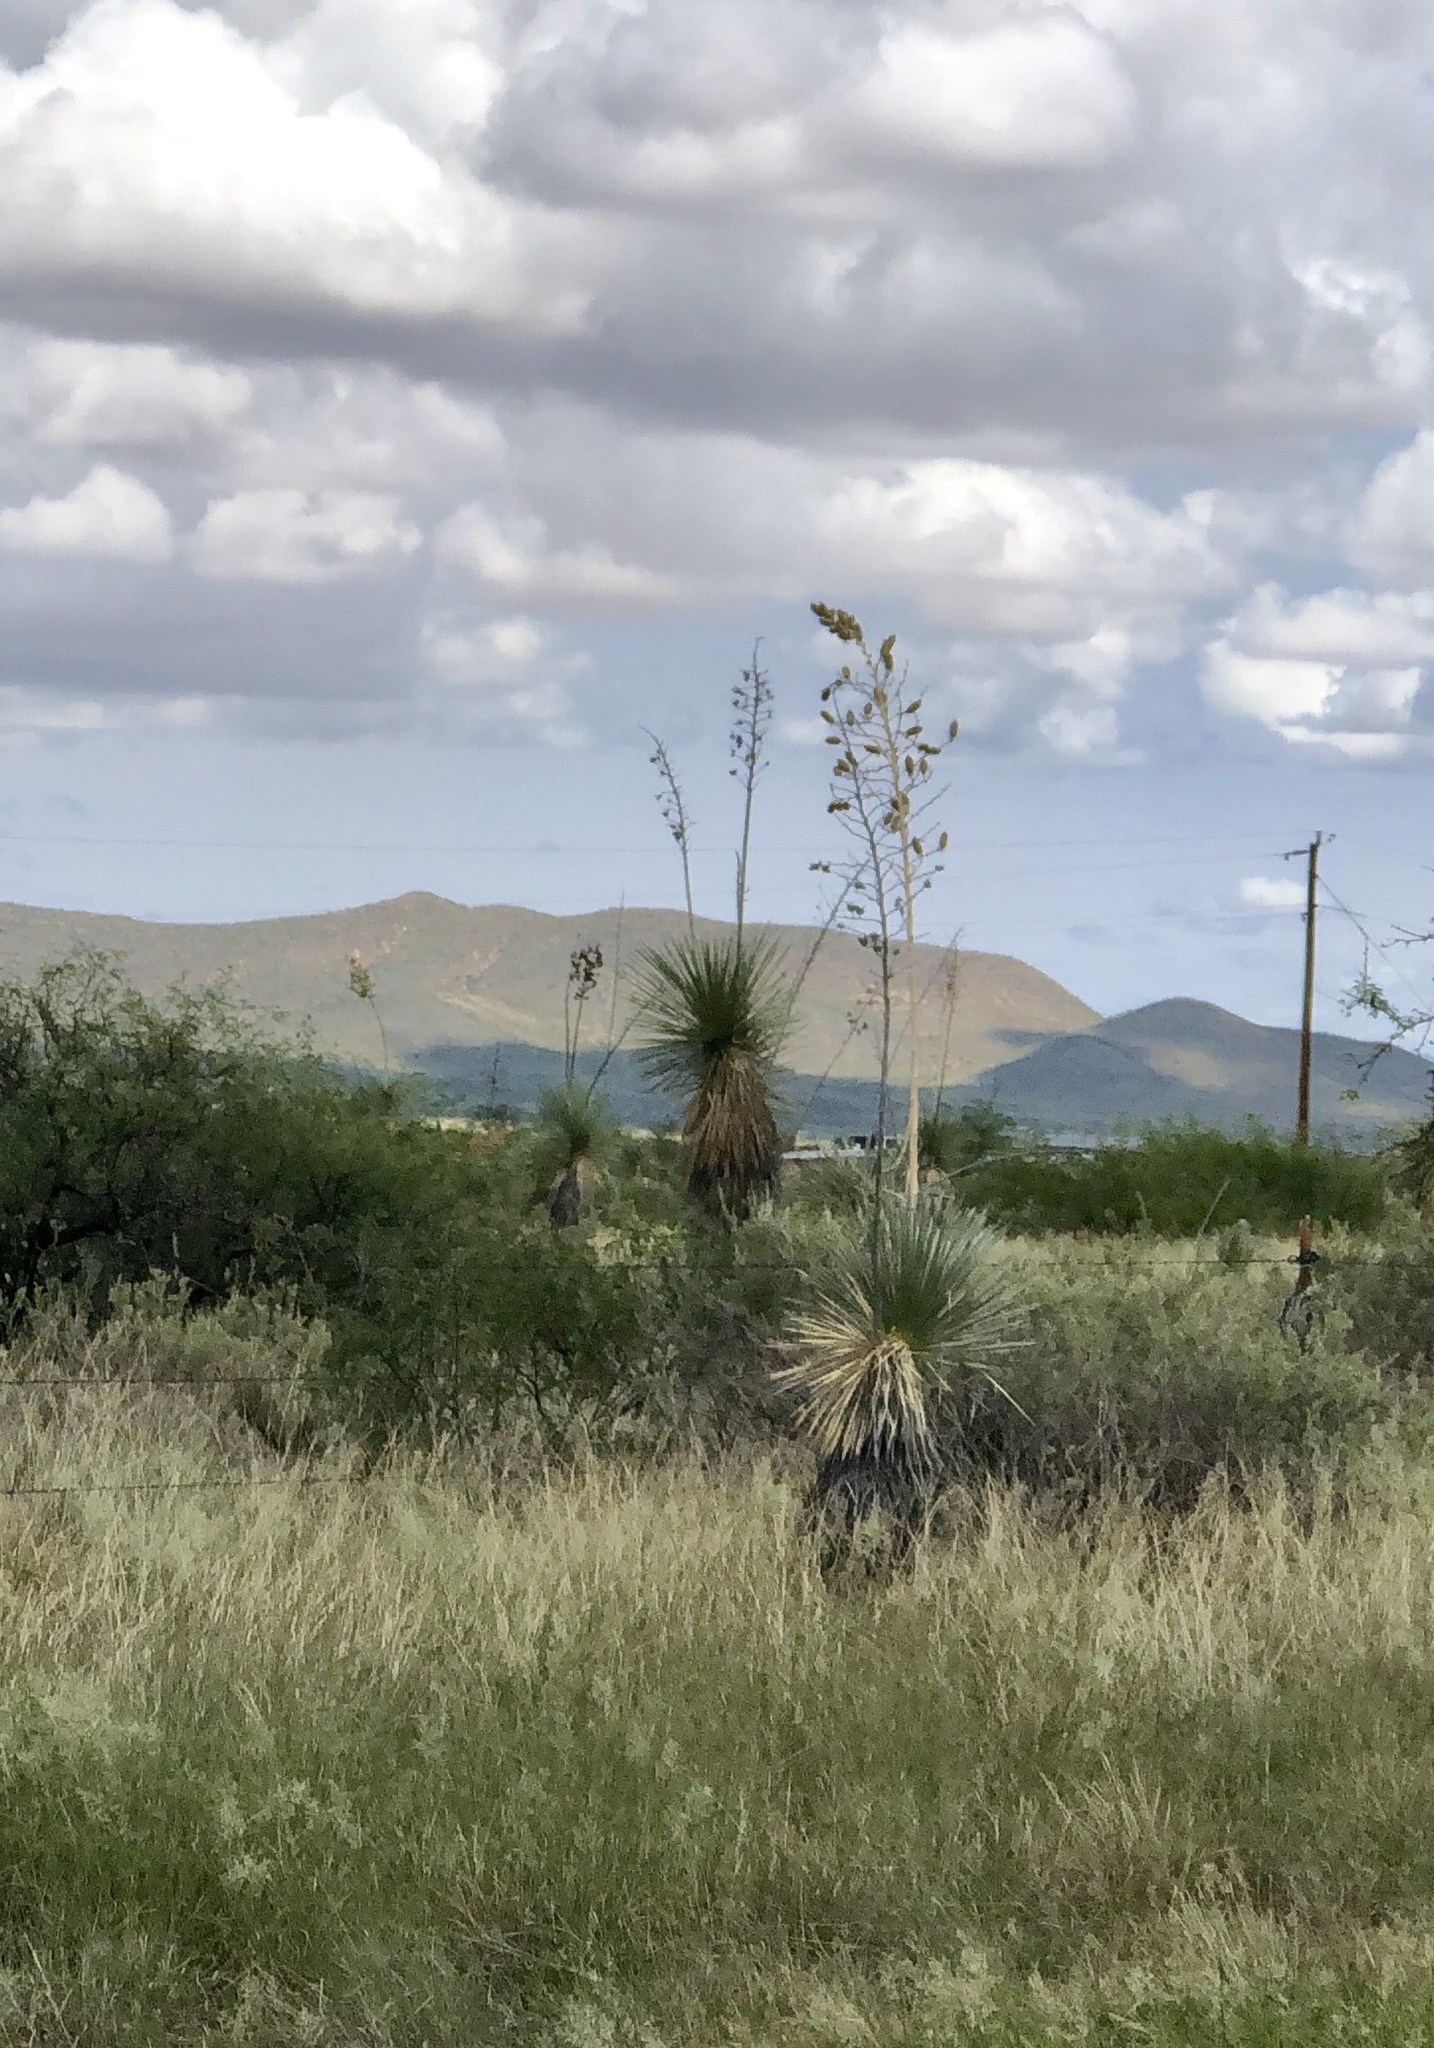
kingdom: Plantae
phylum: Tracheophyta
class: Liliopsida
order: Asparagales
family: Asparagaceae
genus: Yucca
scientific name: Yucca elata
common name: Palmella
